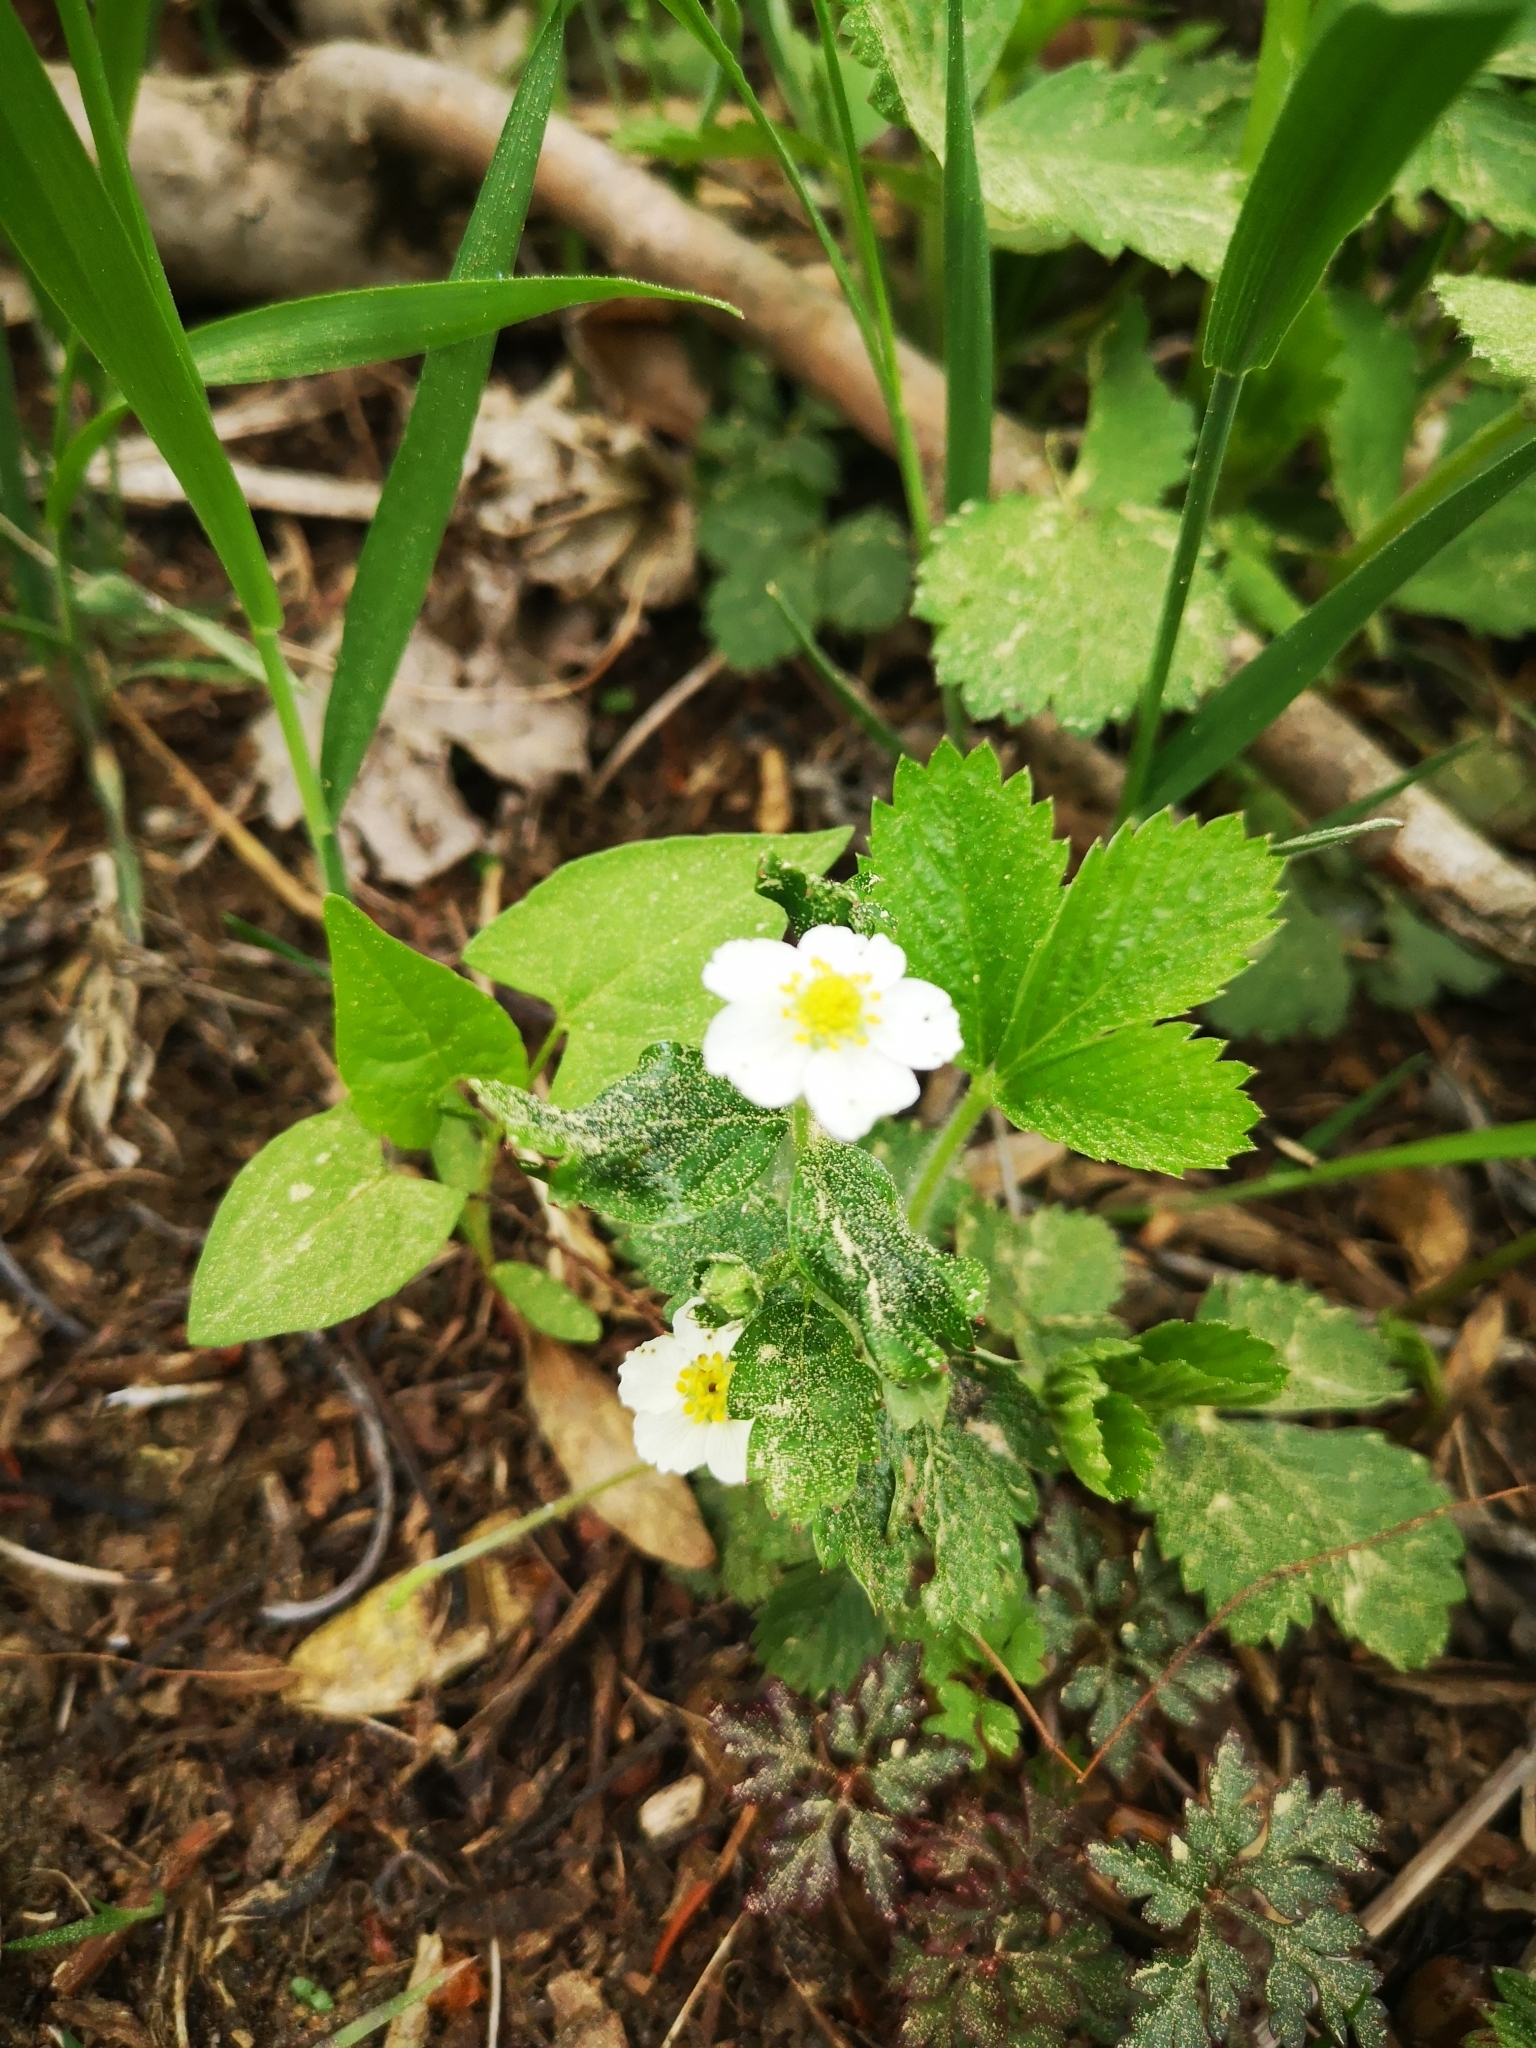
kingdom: Plantae
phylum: Tracheophyta
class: Magnoliopsida
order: Rosales
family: Rosaceae
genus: Fragaria
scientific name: Fragaria vesca
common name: Wild strawberry
